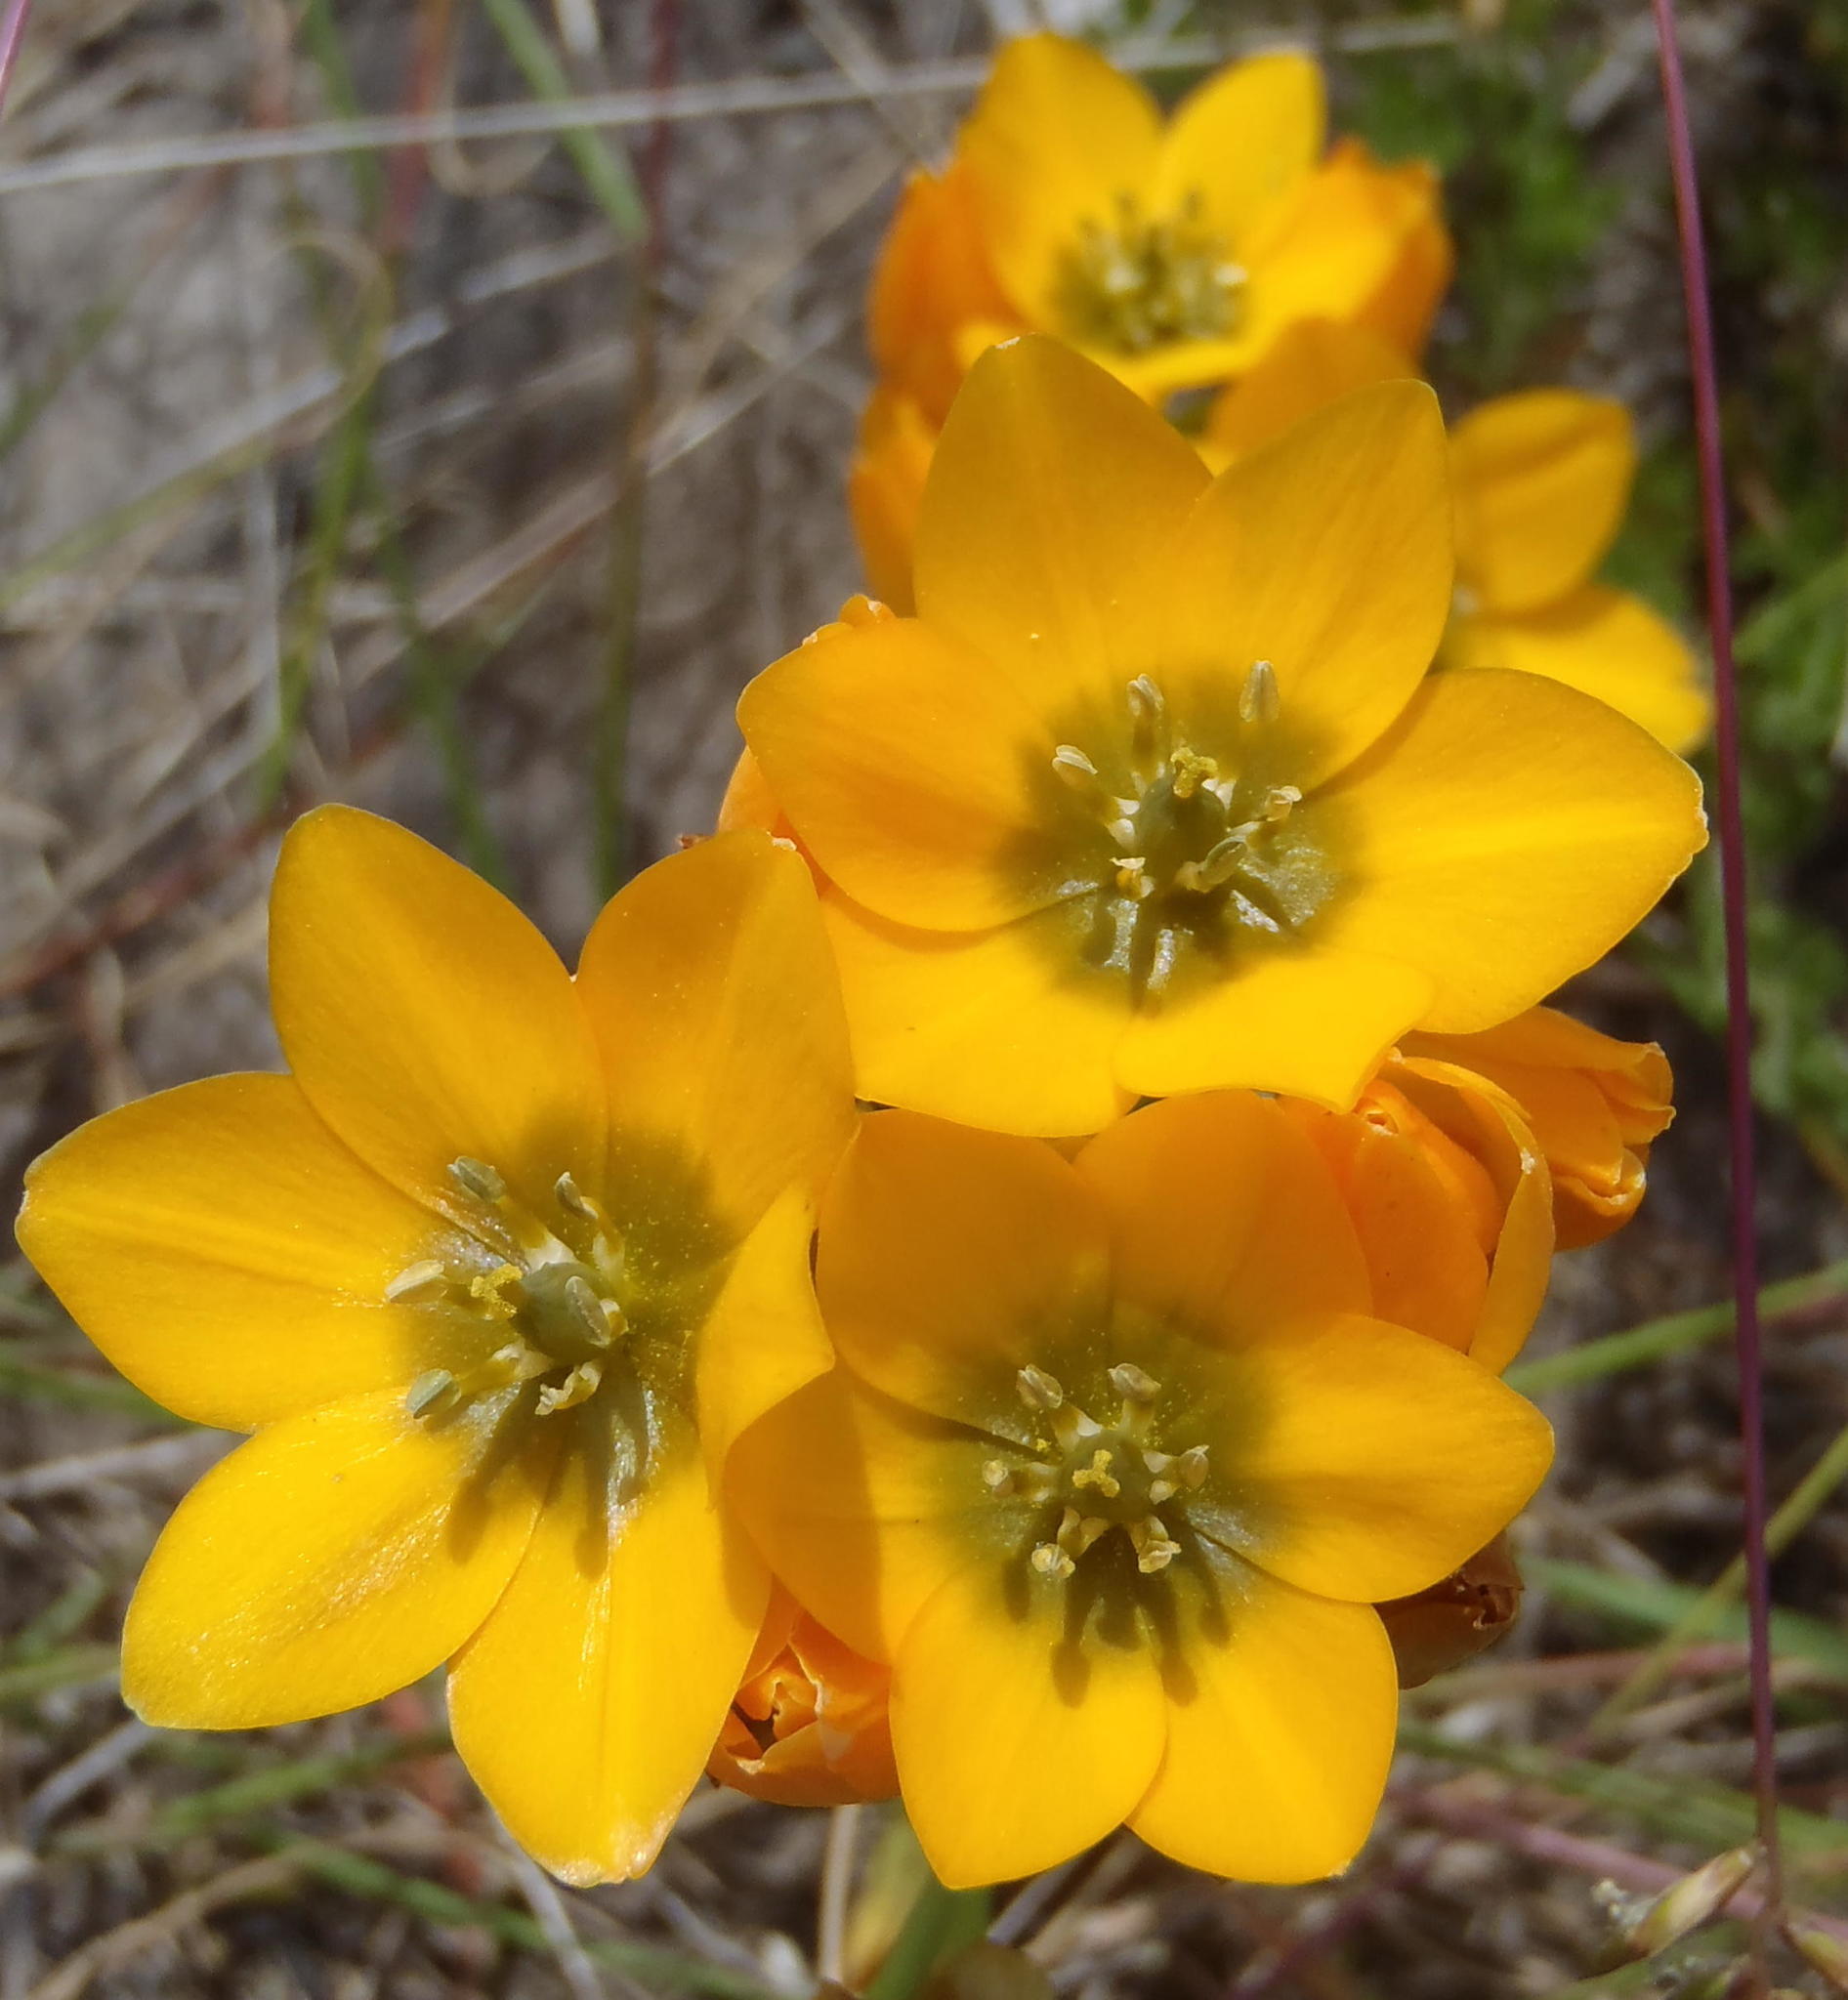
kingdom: Plantae
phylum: Tracheophyta
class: Liliopsida
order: Asparagales
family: Asparagaceae
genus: Ornithogalum
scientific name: Ornithogalum dubium
